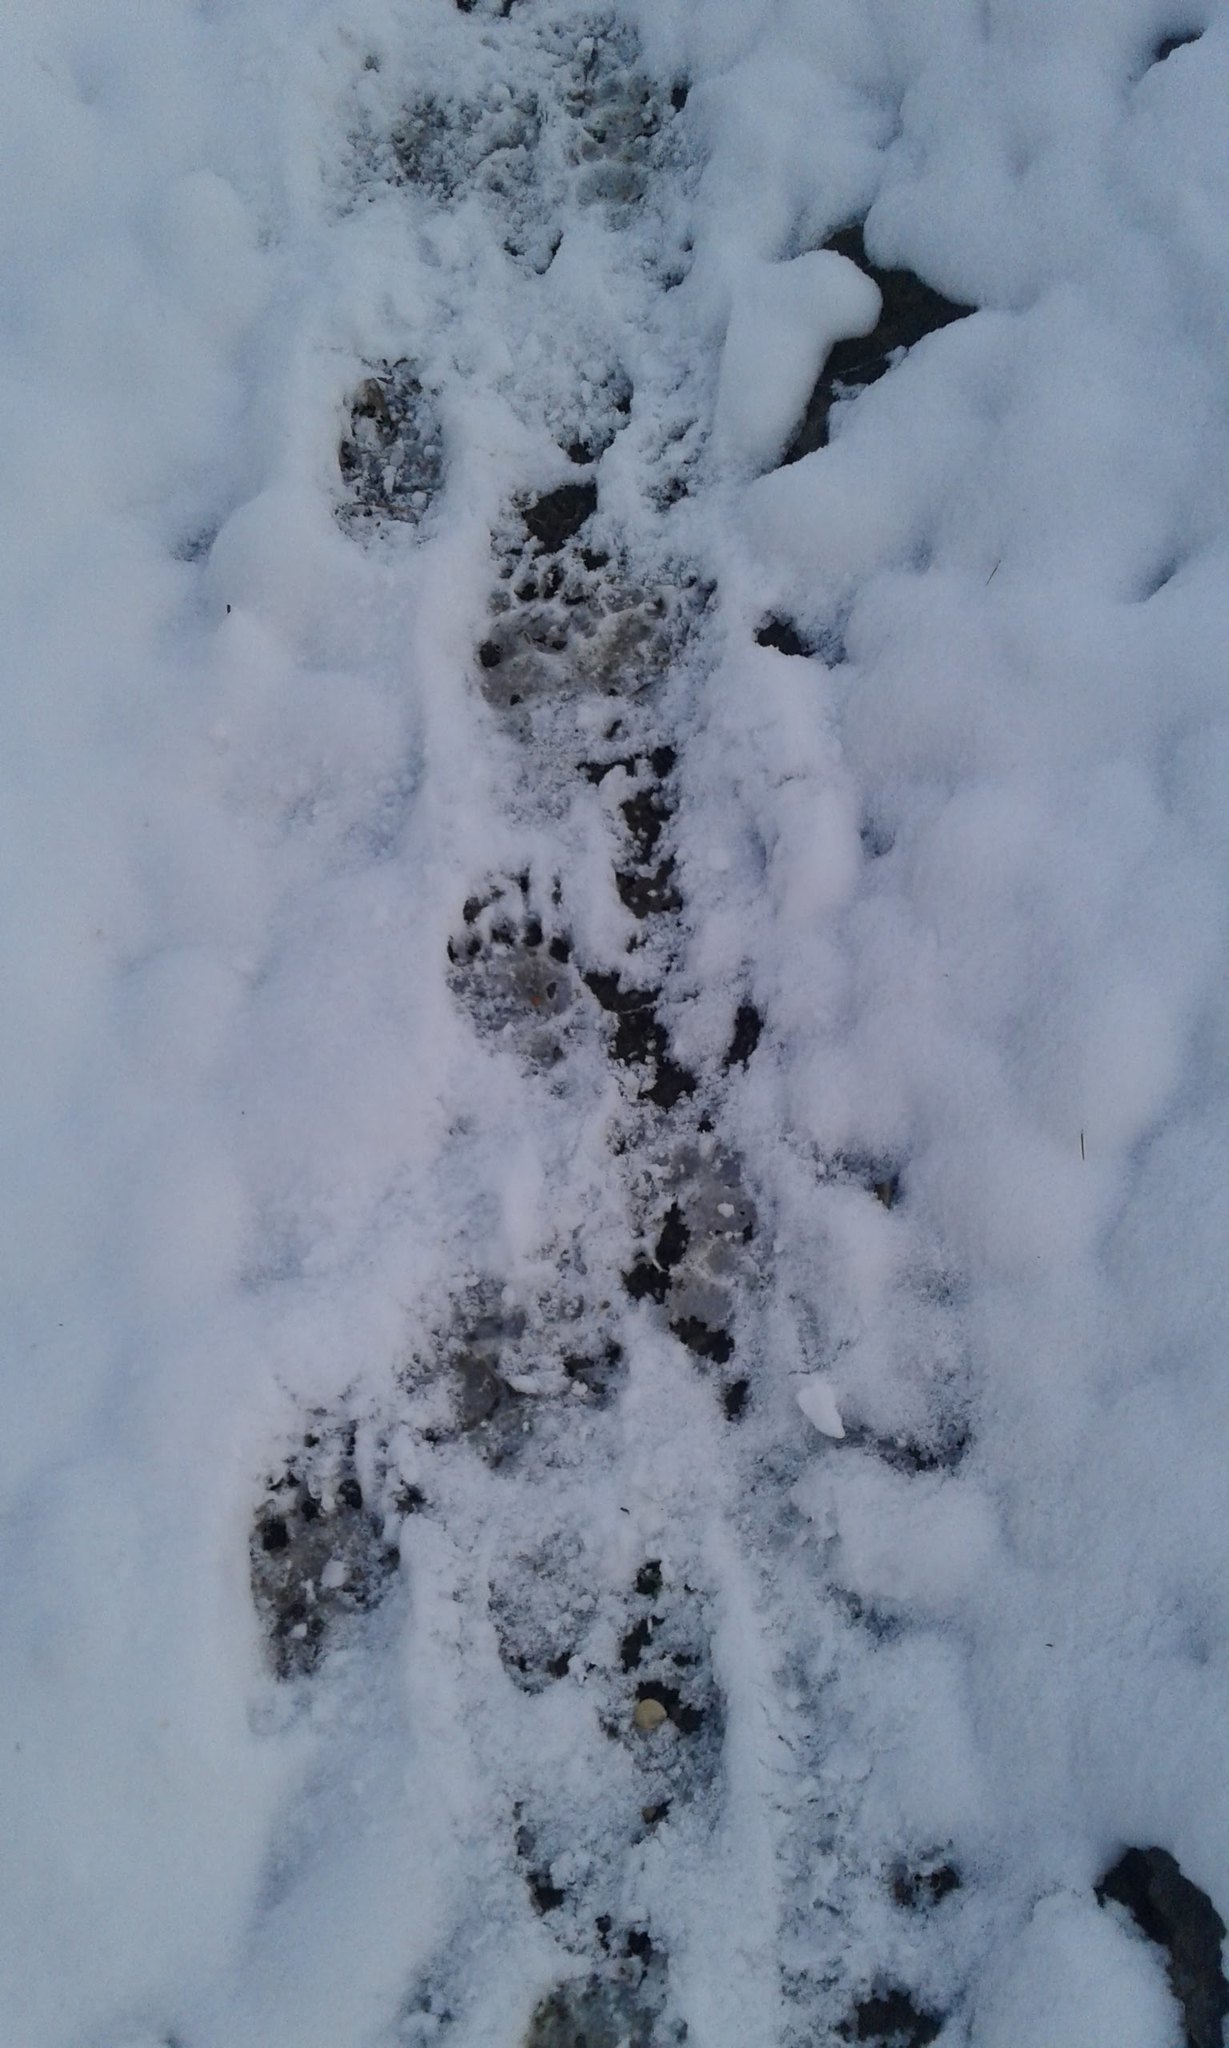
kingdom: Animalia
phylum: Chordata
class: Mammalia
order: Carnivora
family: Mustelidae
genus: Meles
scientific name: Meles meles
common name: Eurasian badger
